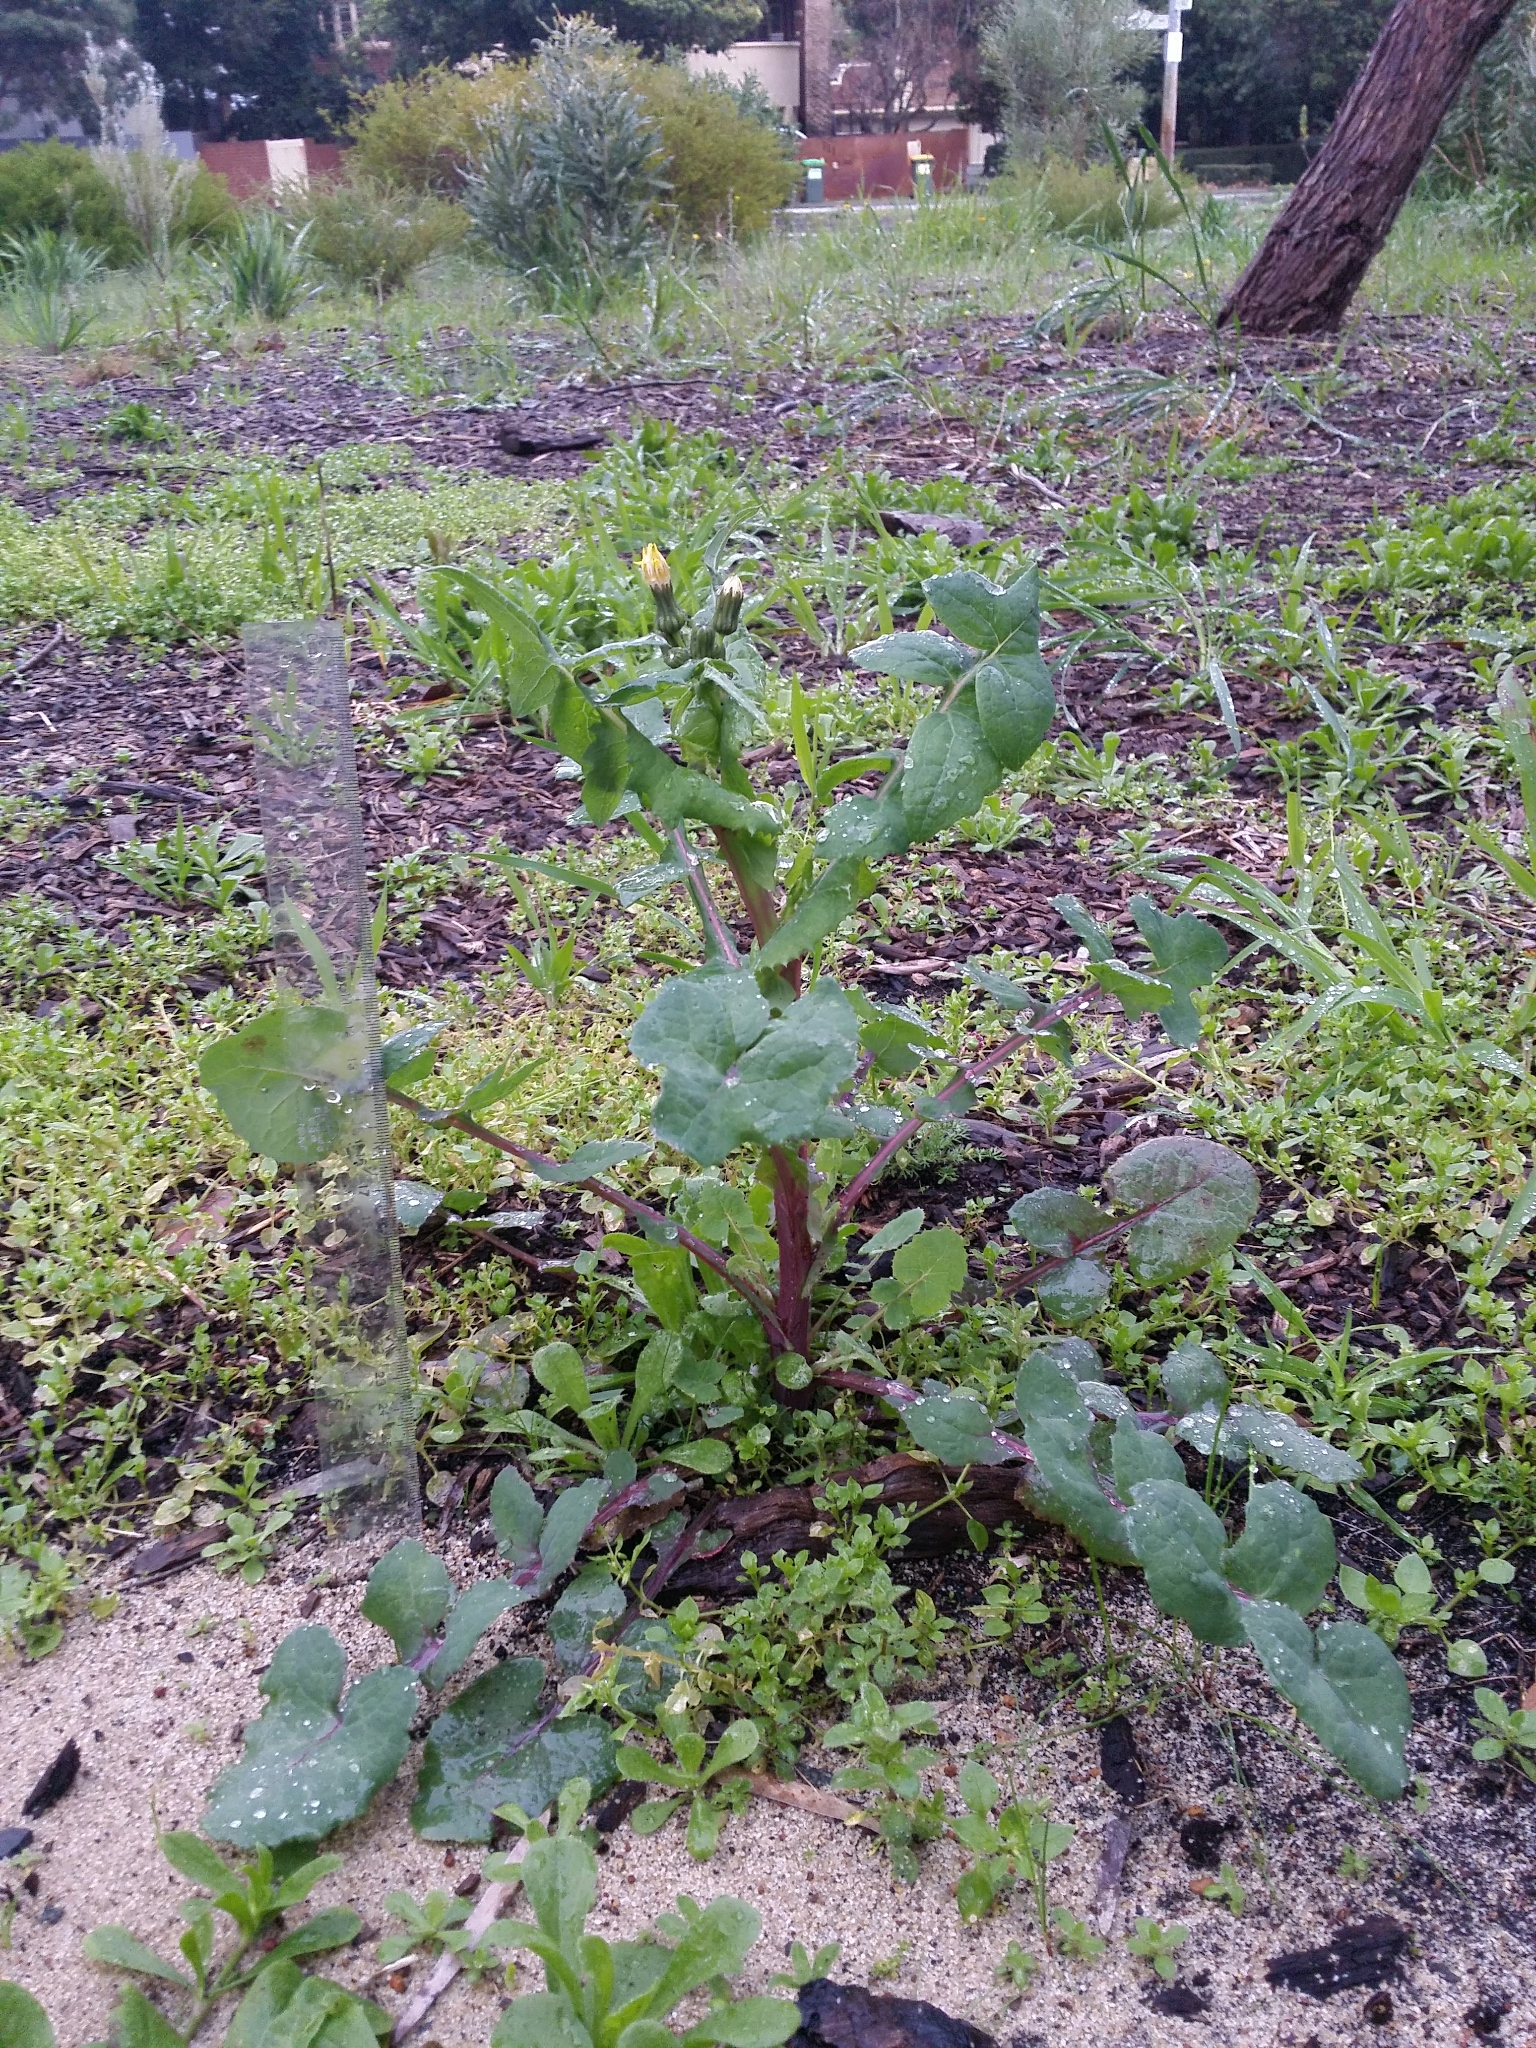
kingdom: Plantae
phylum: Tracheophyta
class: Magnoliopsida
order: Asterales
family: Asteraceae
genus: Sonchus
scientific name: Sonchus oleraceus
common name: Common sowthistle
